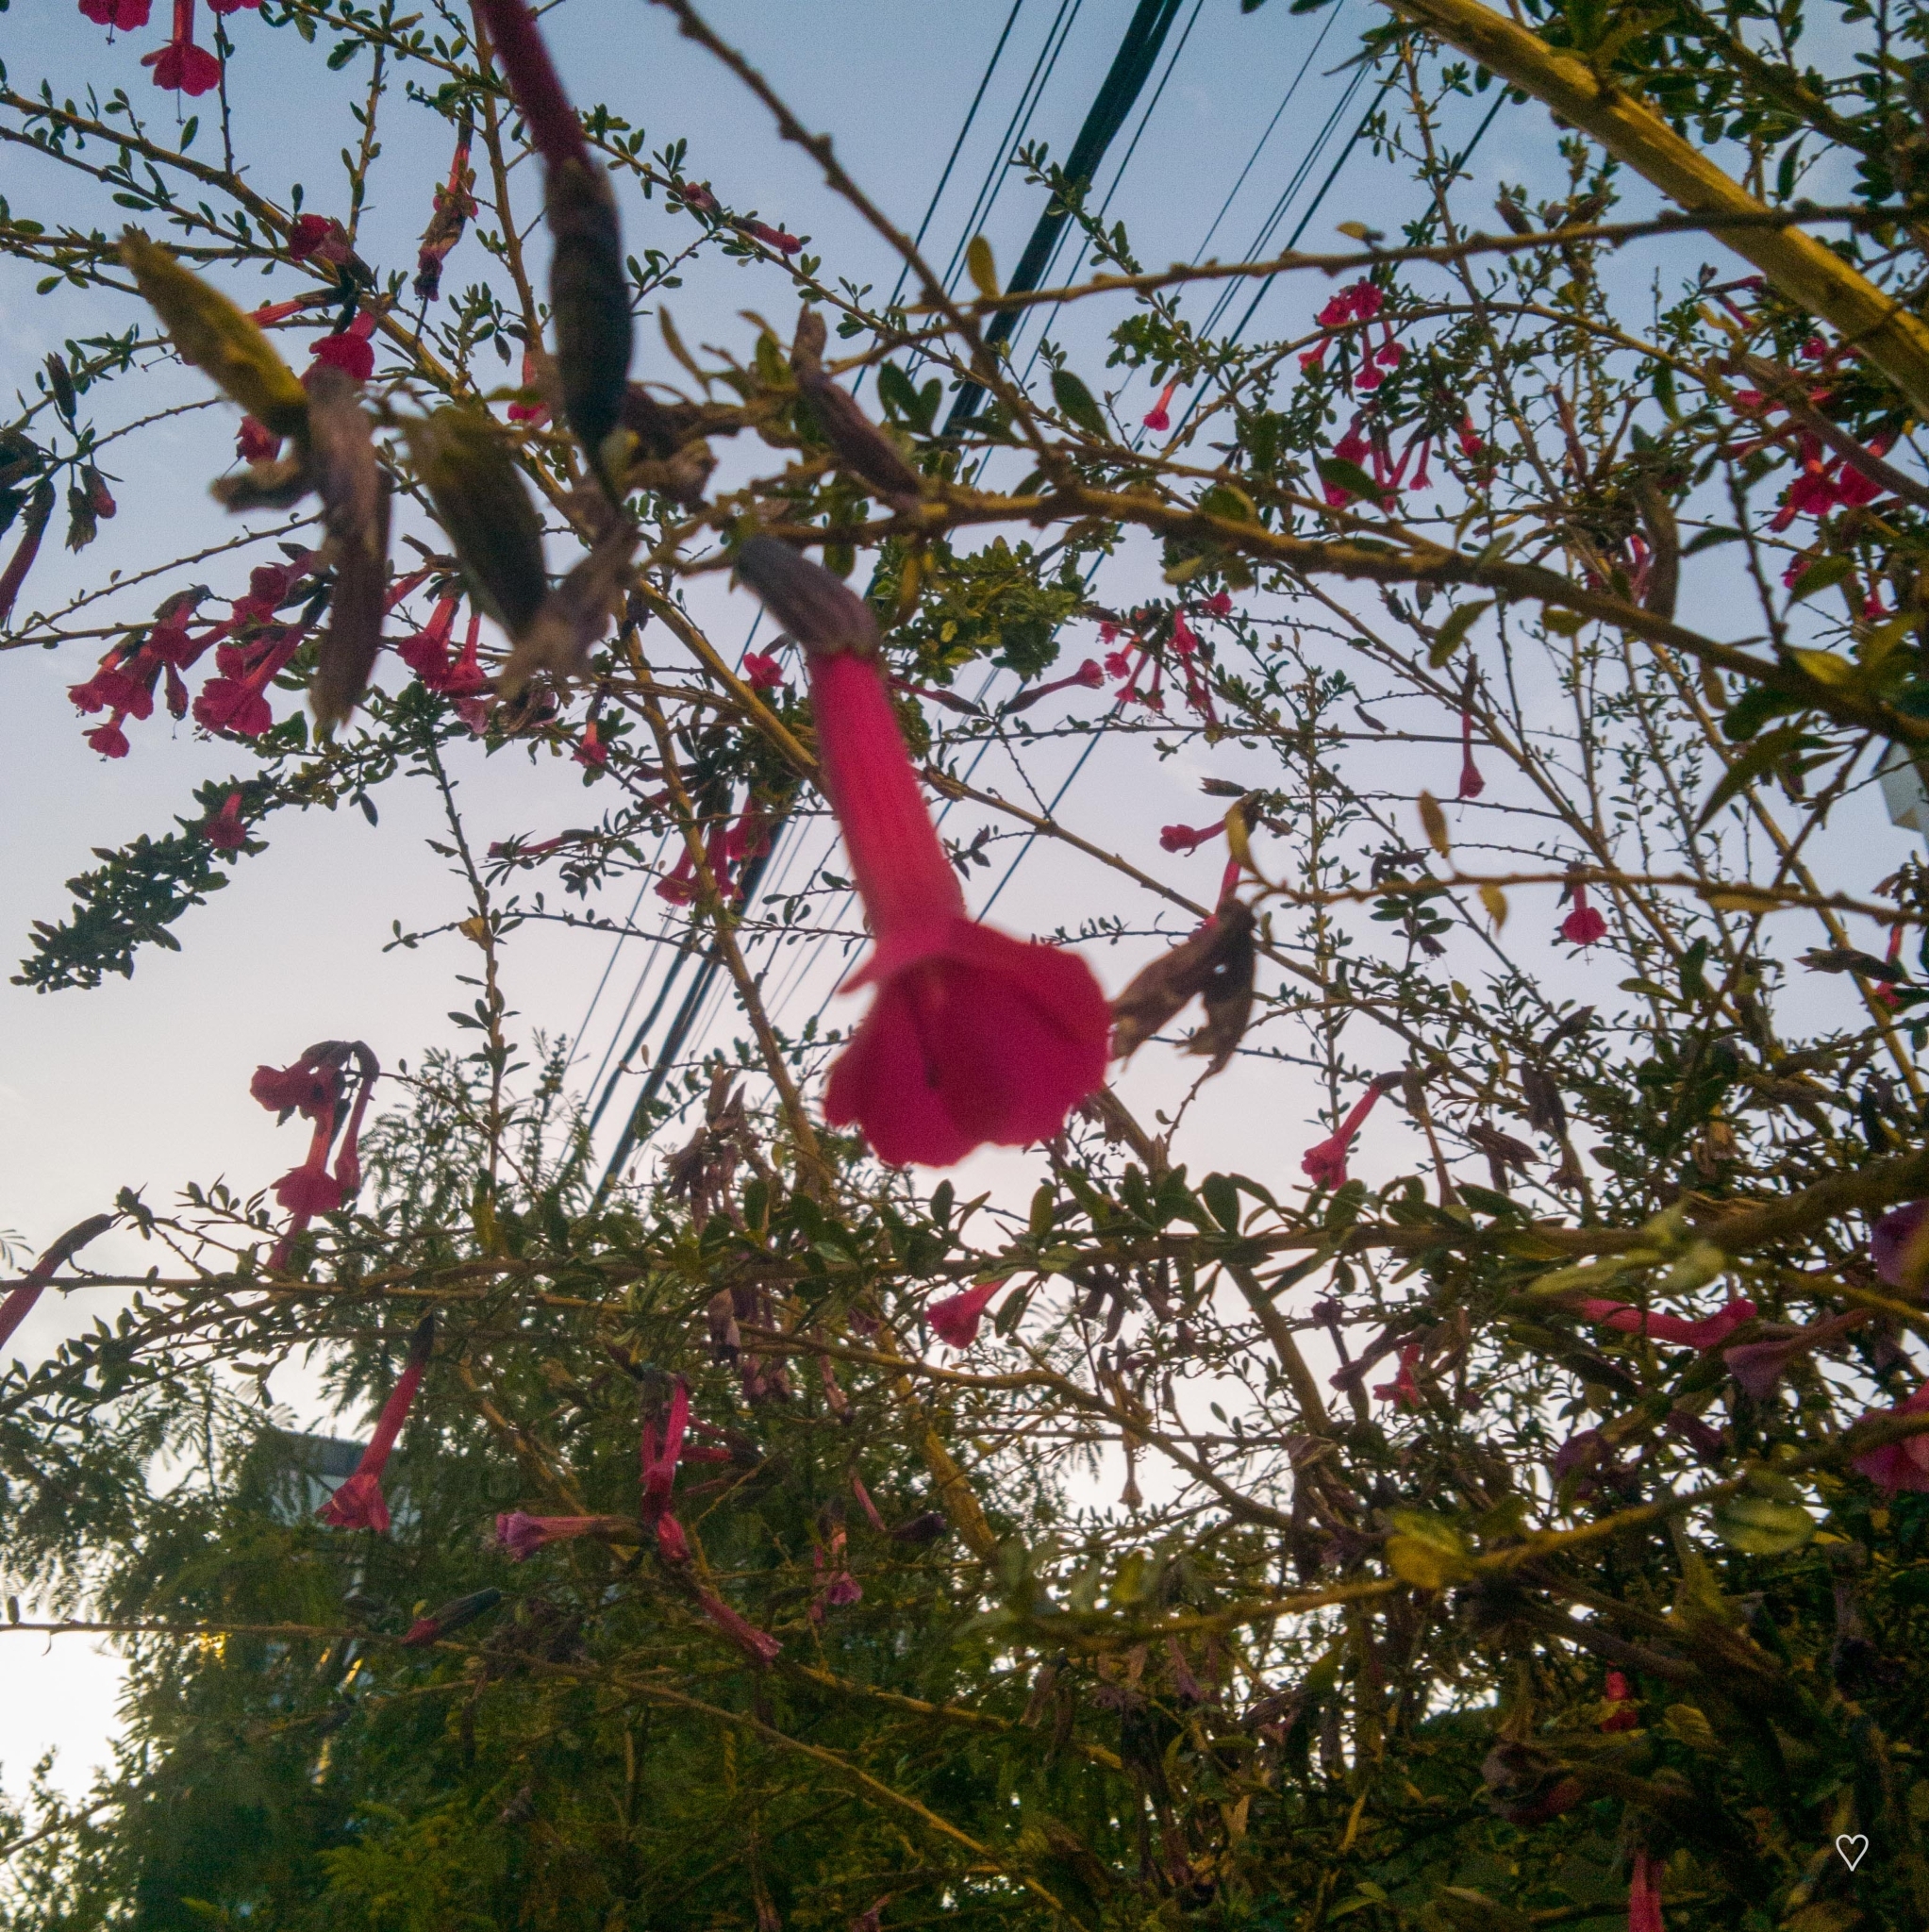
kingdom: Plantae
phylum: Tracheophyta
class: Magnoliopsida
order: Ericales
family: Polemoniaceae
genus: Cantua
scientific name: Cantua buxifolia
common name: Sacred-flower-of-the-incas
